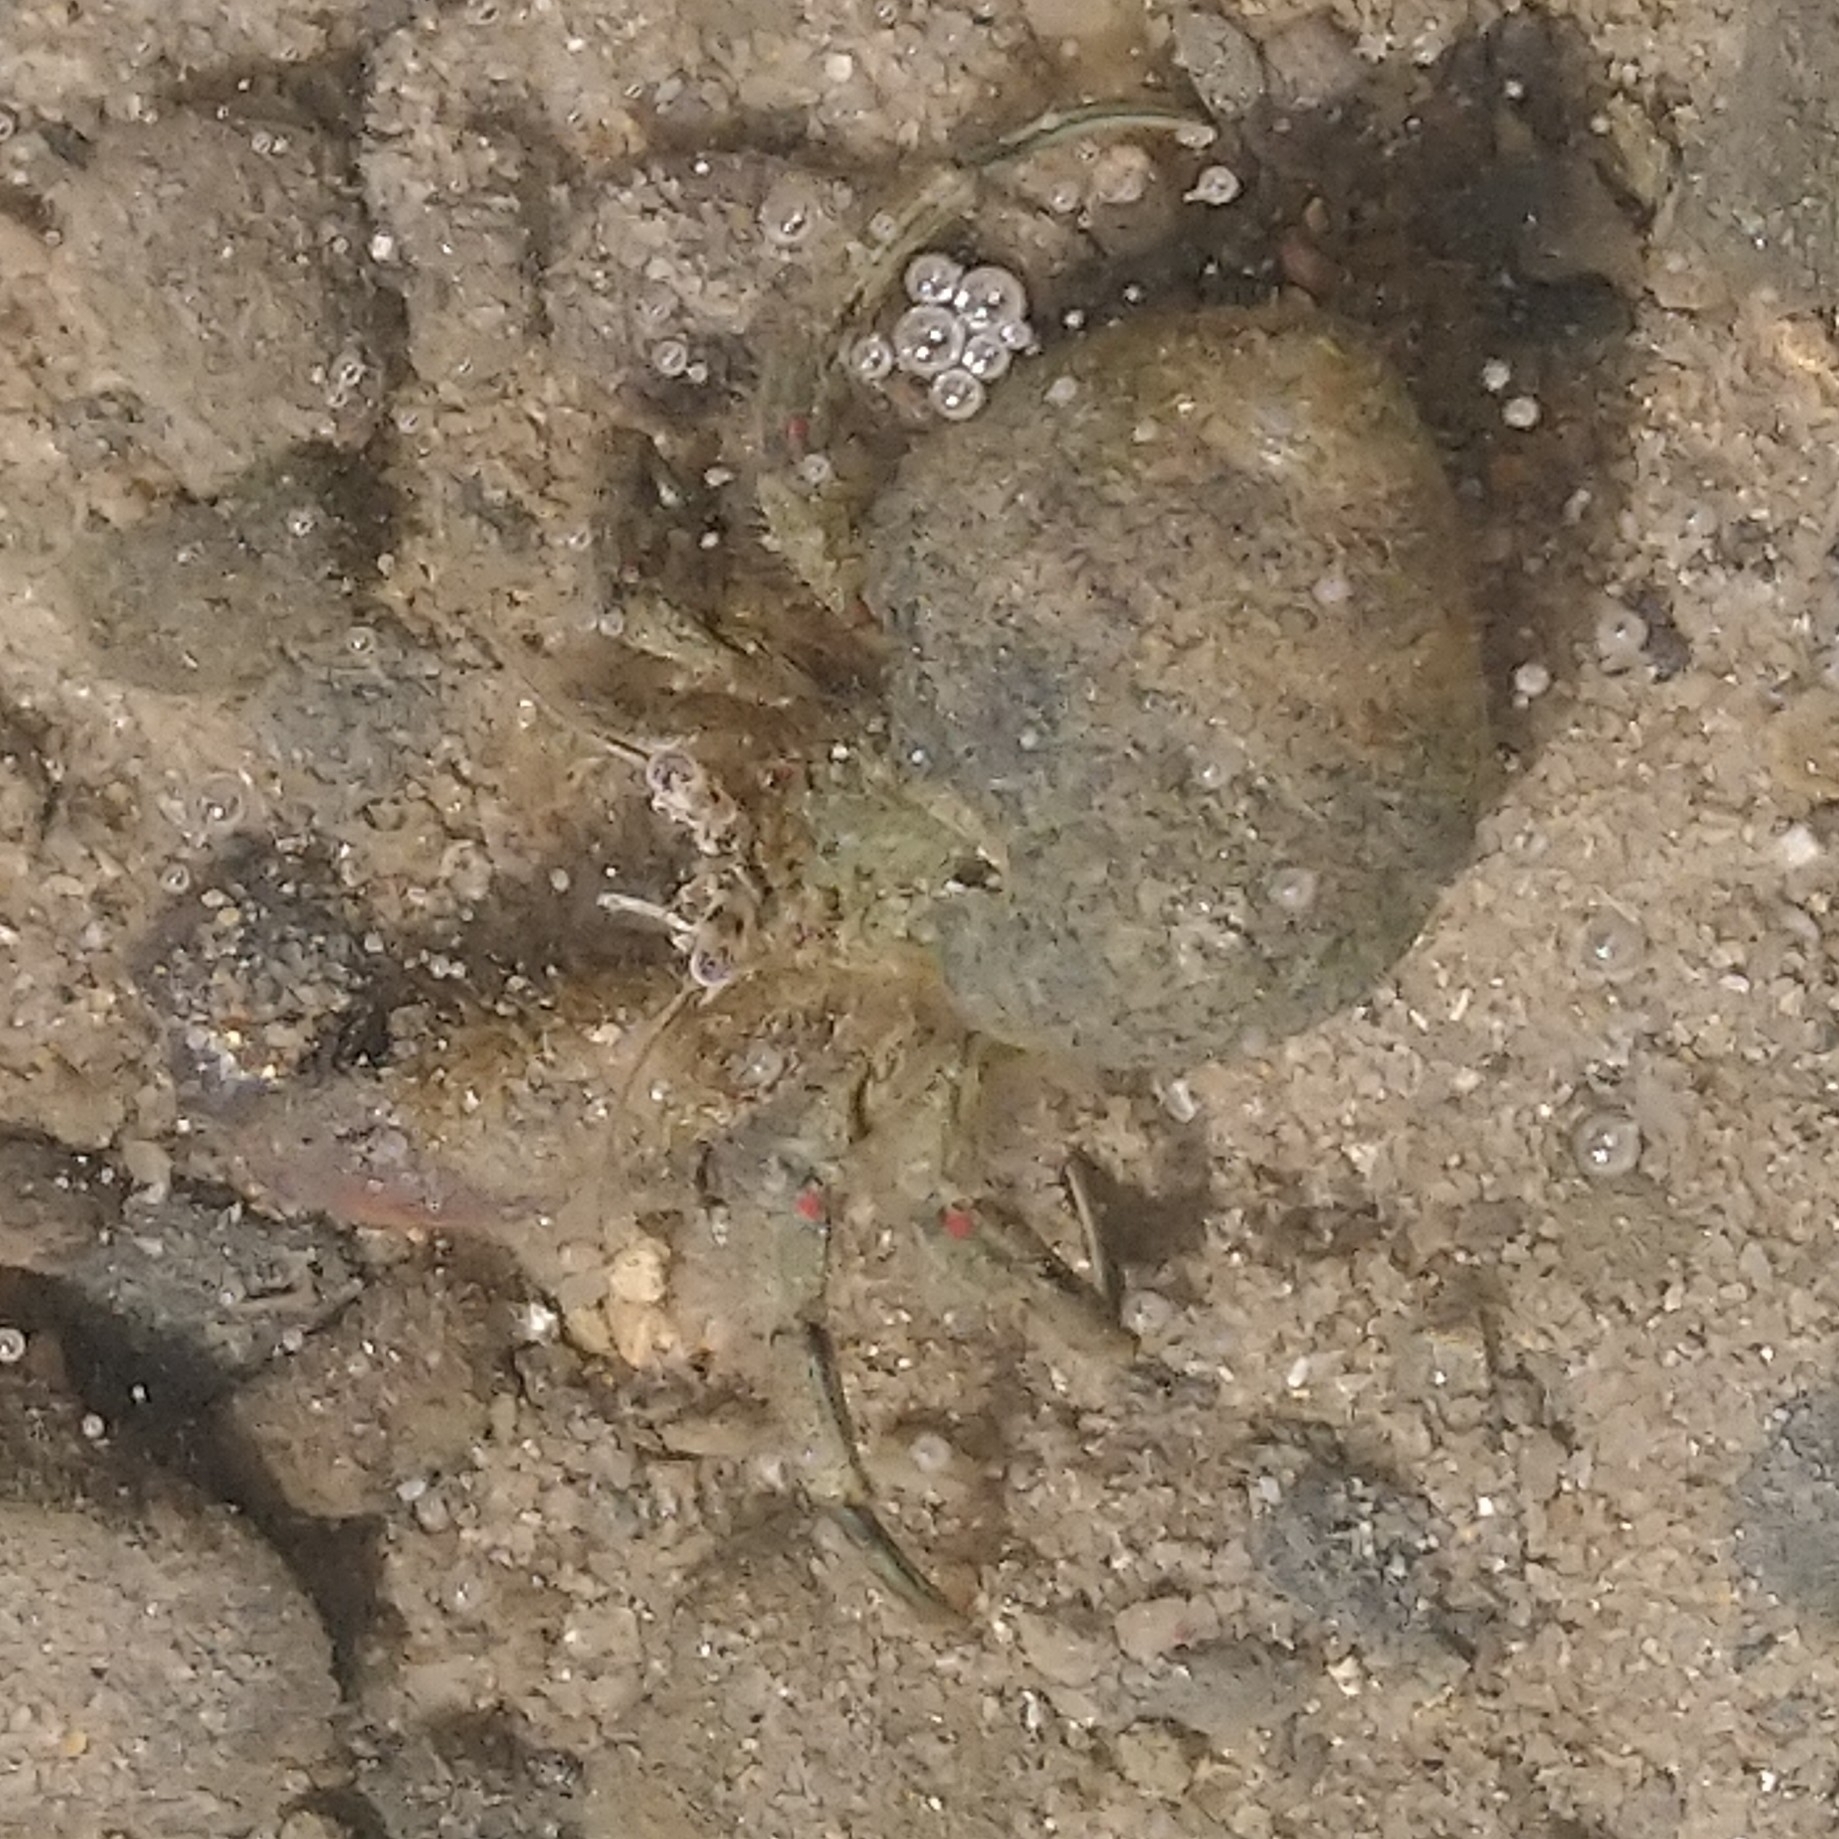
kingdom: Animalia
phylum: Arthropoda
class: Malacostraca
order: Decapoda
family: Diogenidae
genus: Diogenes
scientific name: Diogenes brevirostris
